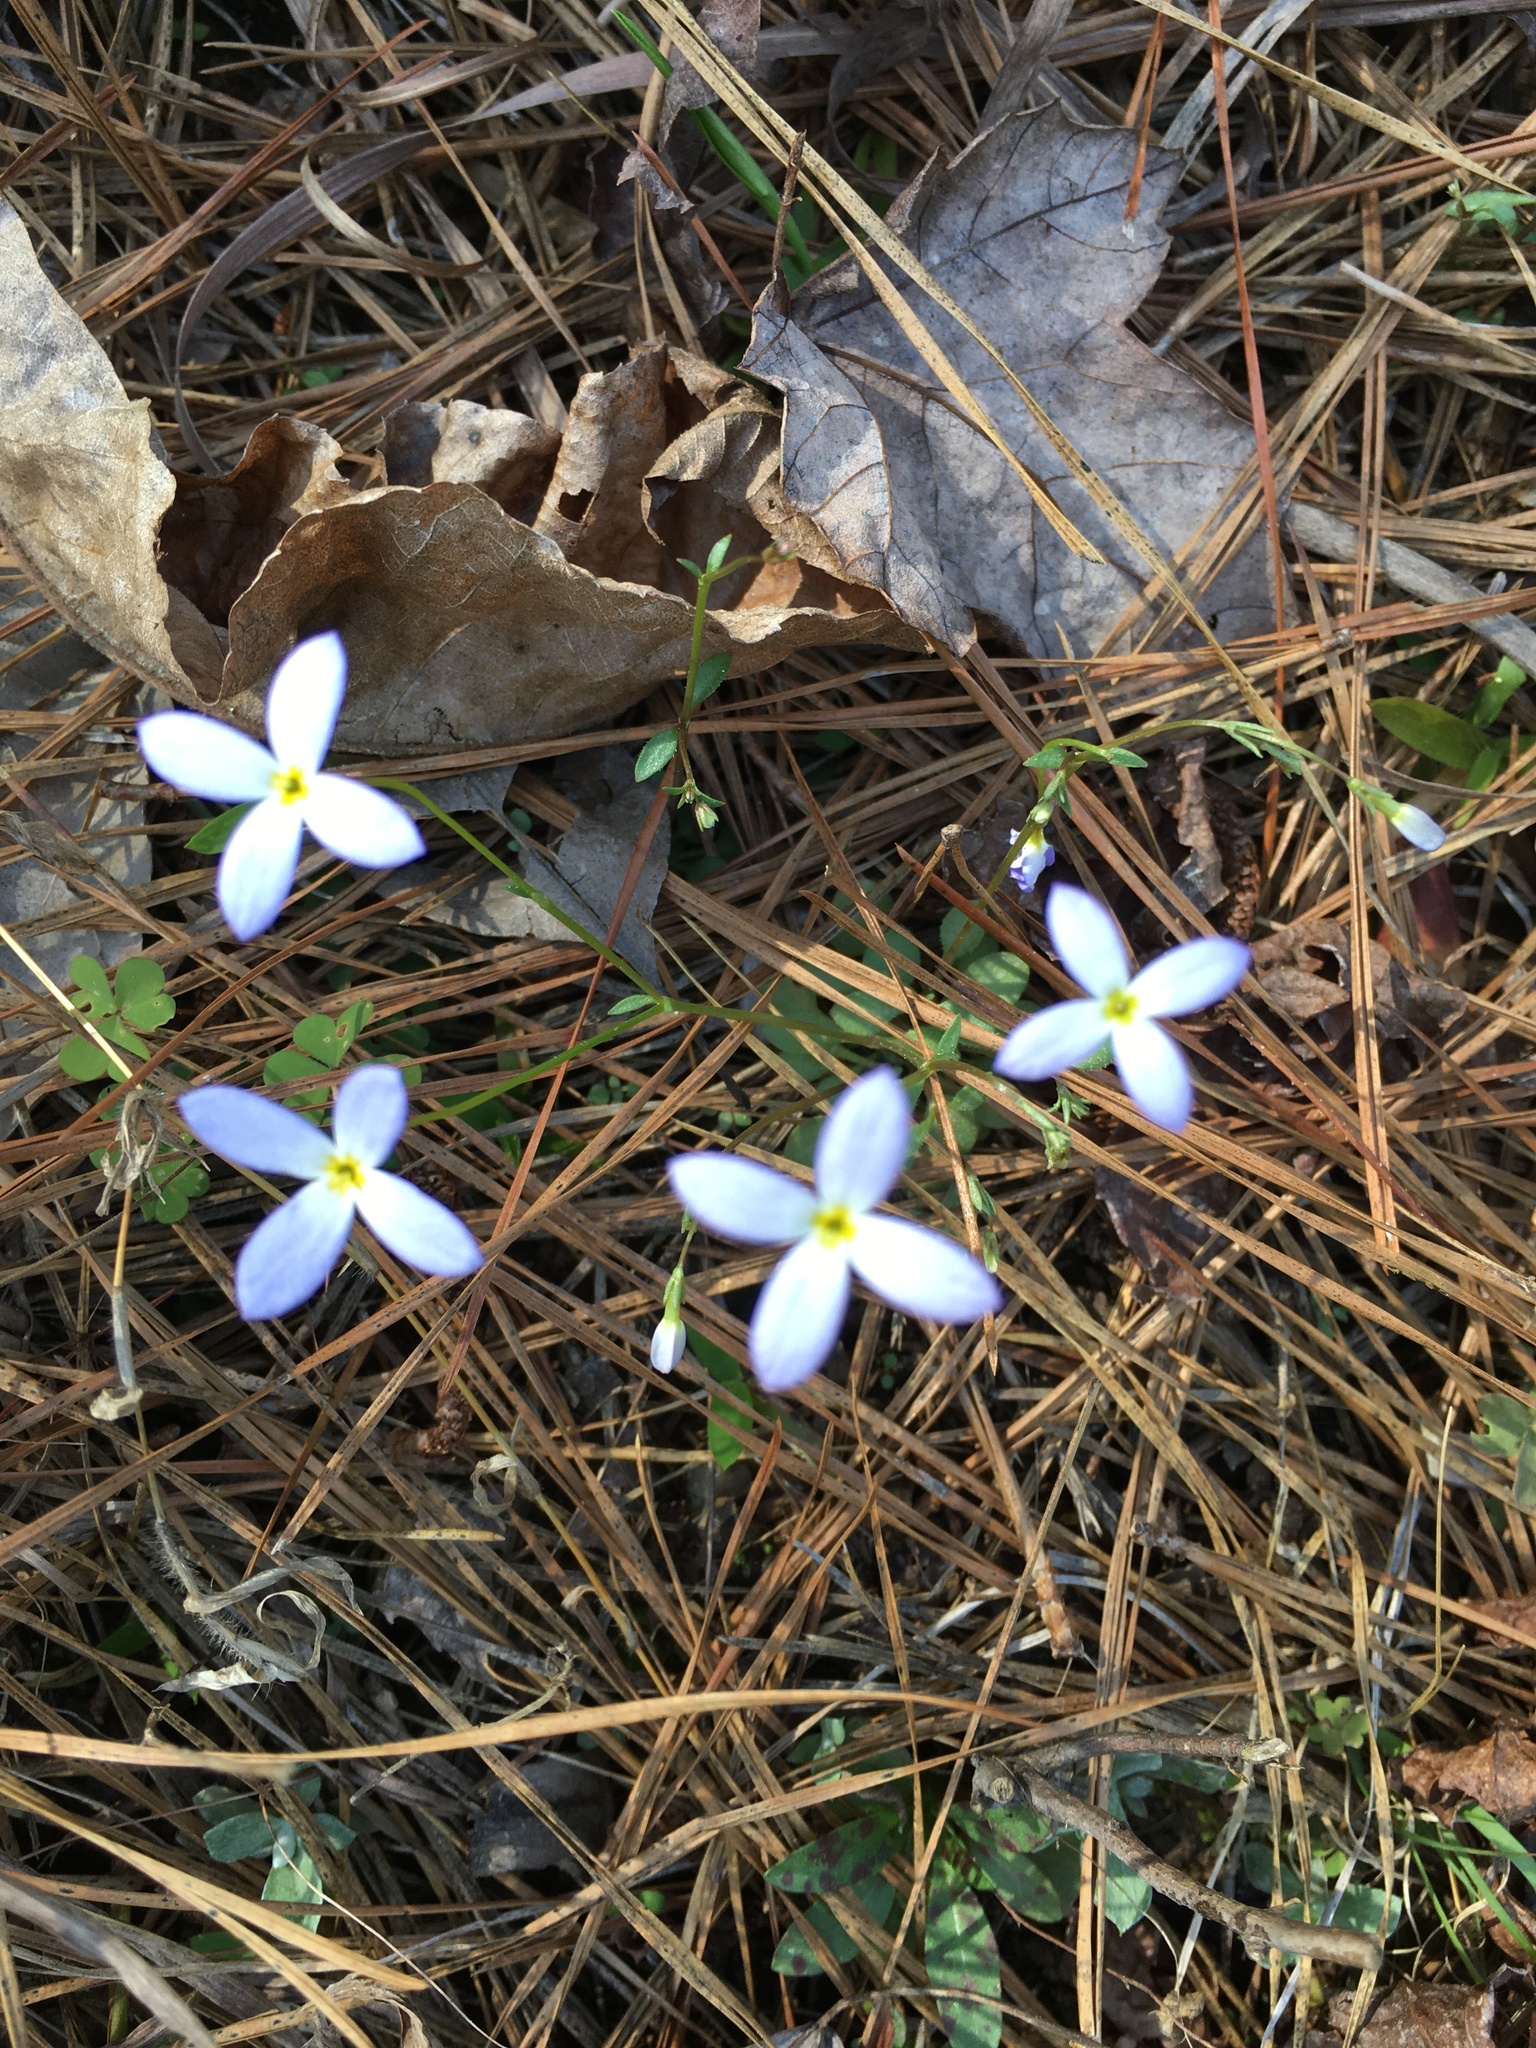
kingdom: Plantae
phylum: Tracheophyta
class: Magnoliopsida
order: Gentianales
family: Rubiaceae
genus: Houstonia
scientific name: Houstonia caerulea
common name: Bluets
